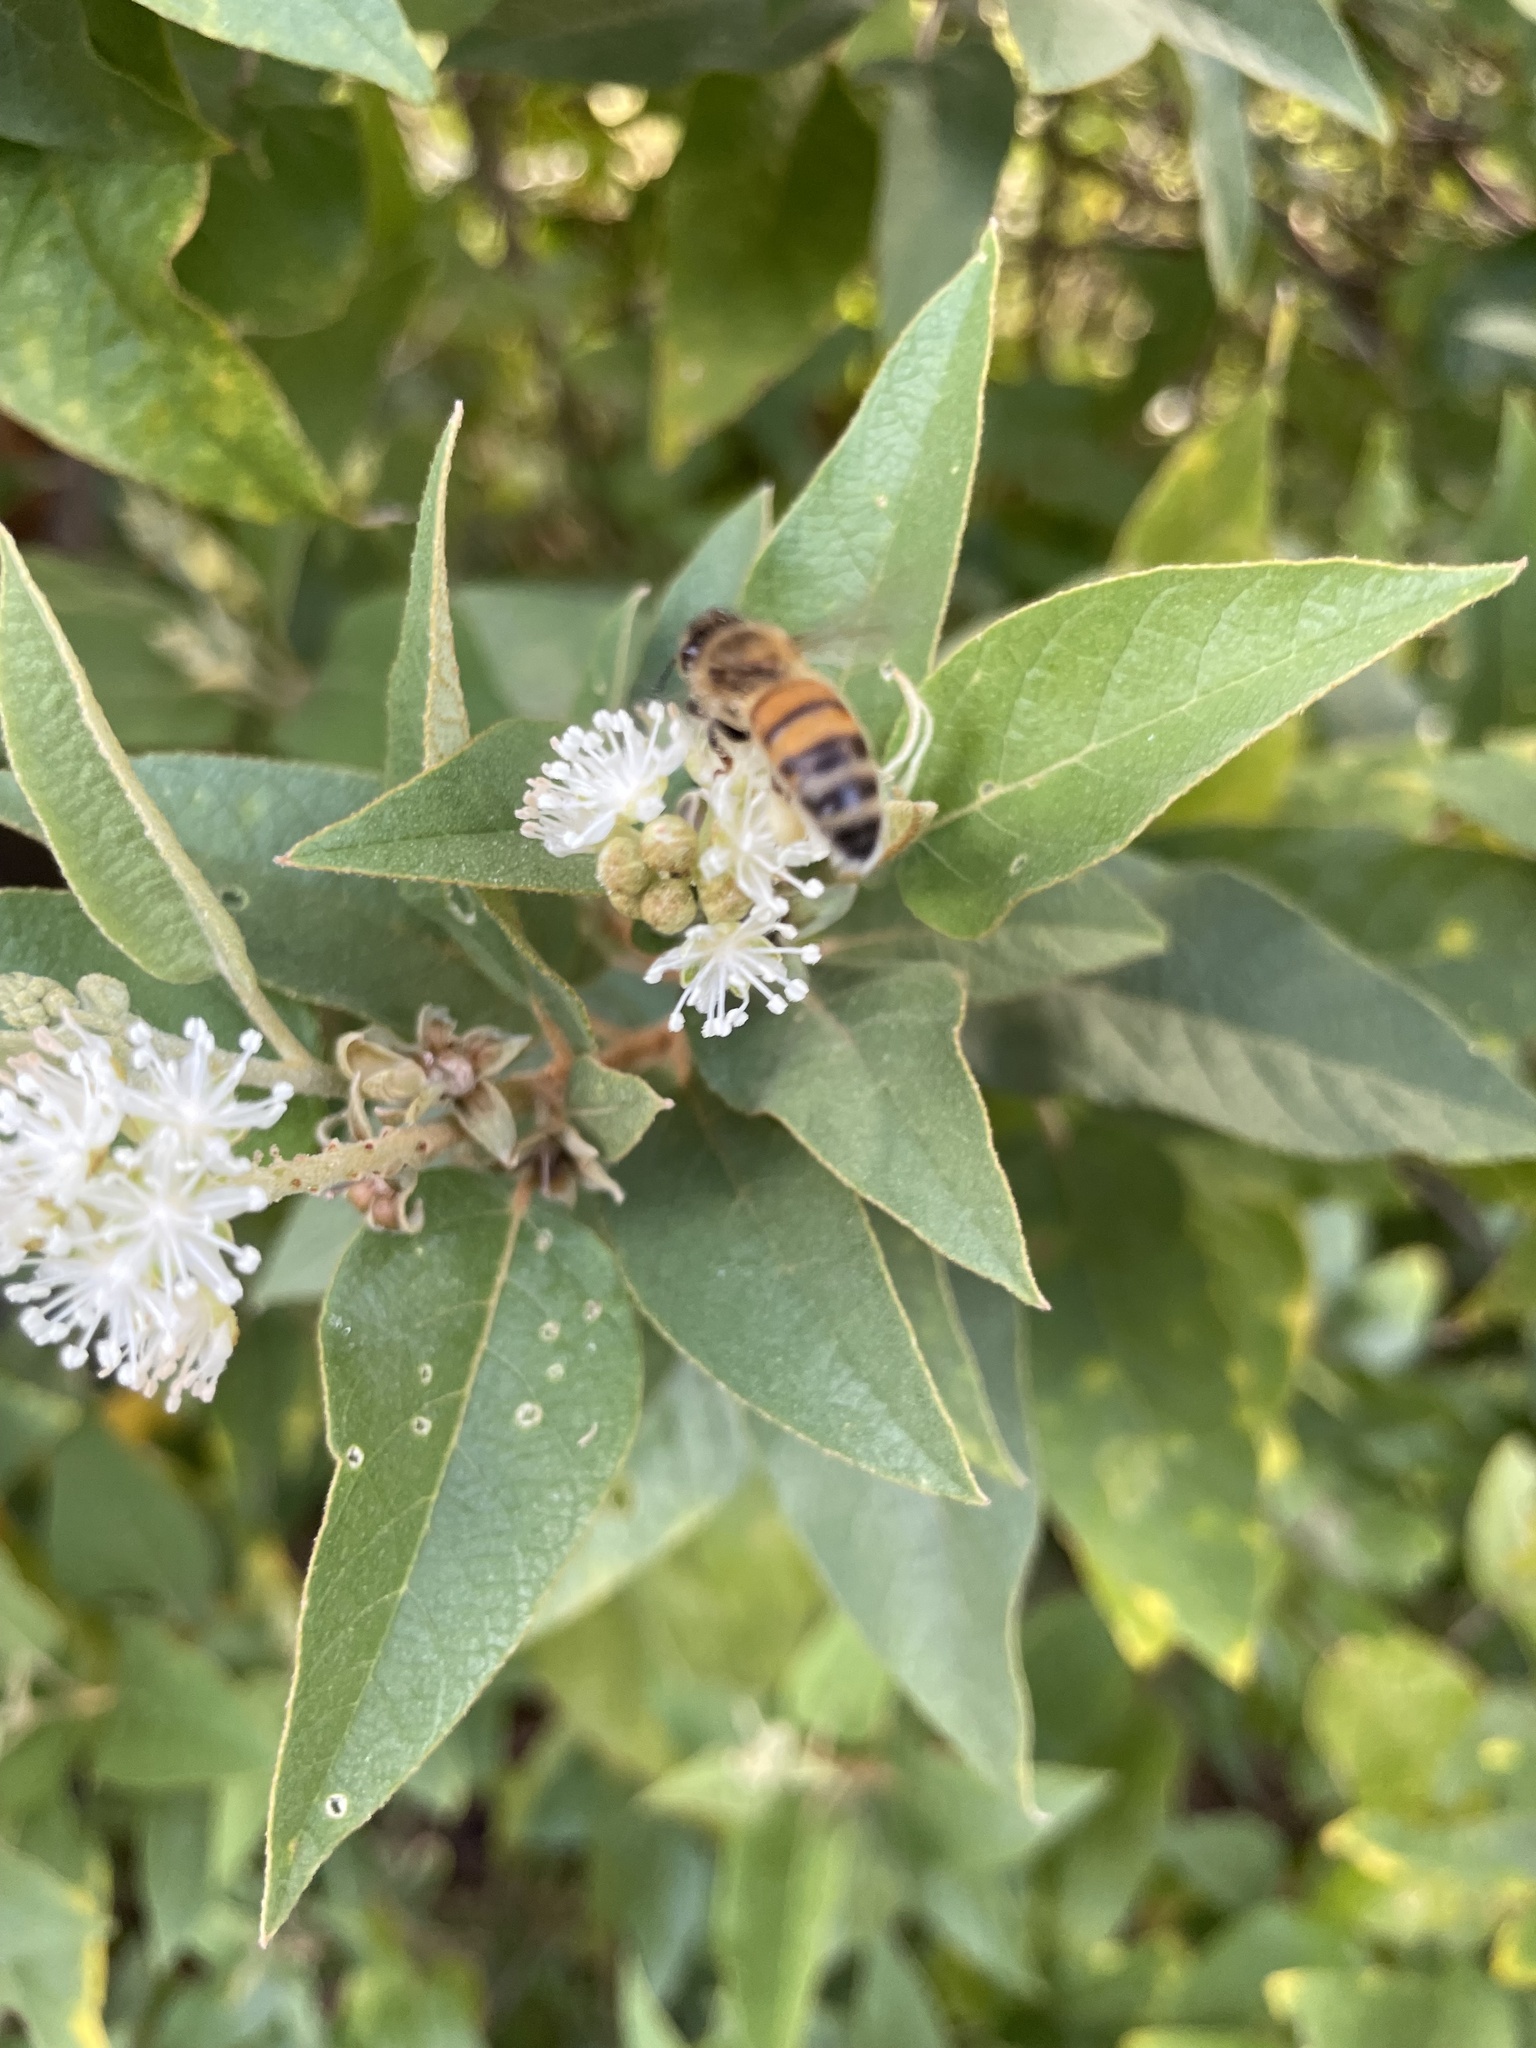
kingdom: Animalia
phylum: Arthropoda
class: Insecta
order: Hymenoptera
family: Apidae
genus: Apis
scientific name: Apis mellifera
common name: Honey bee
